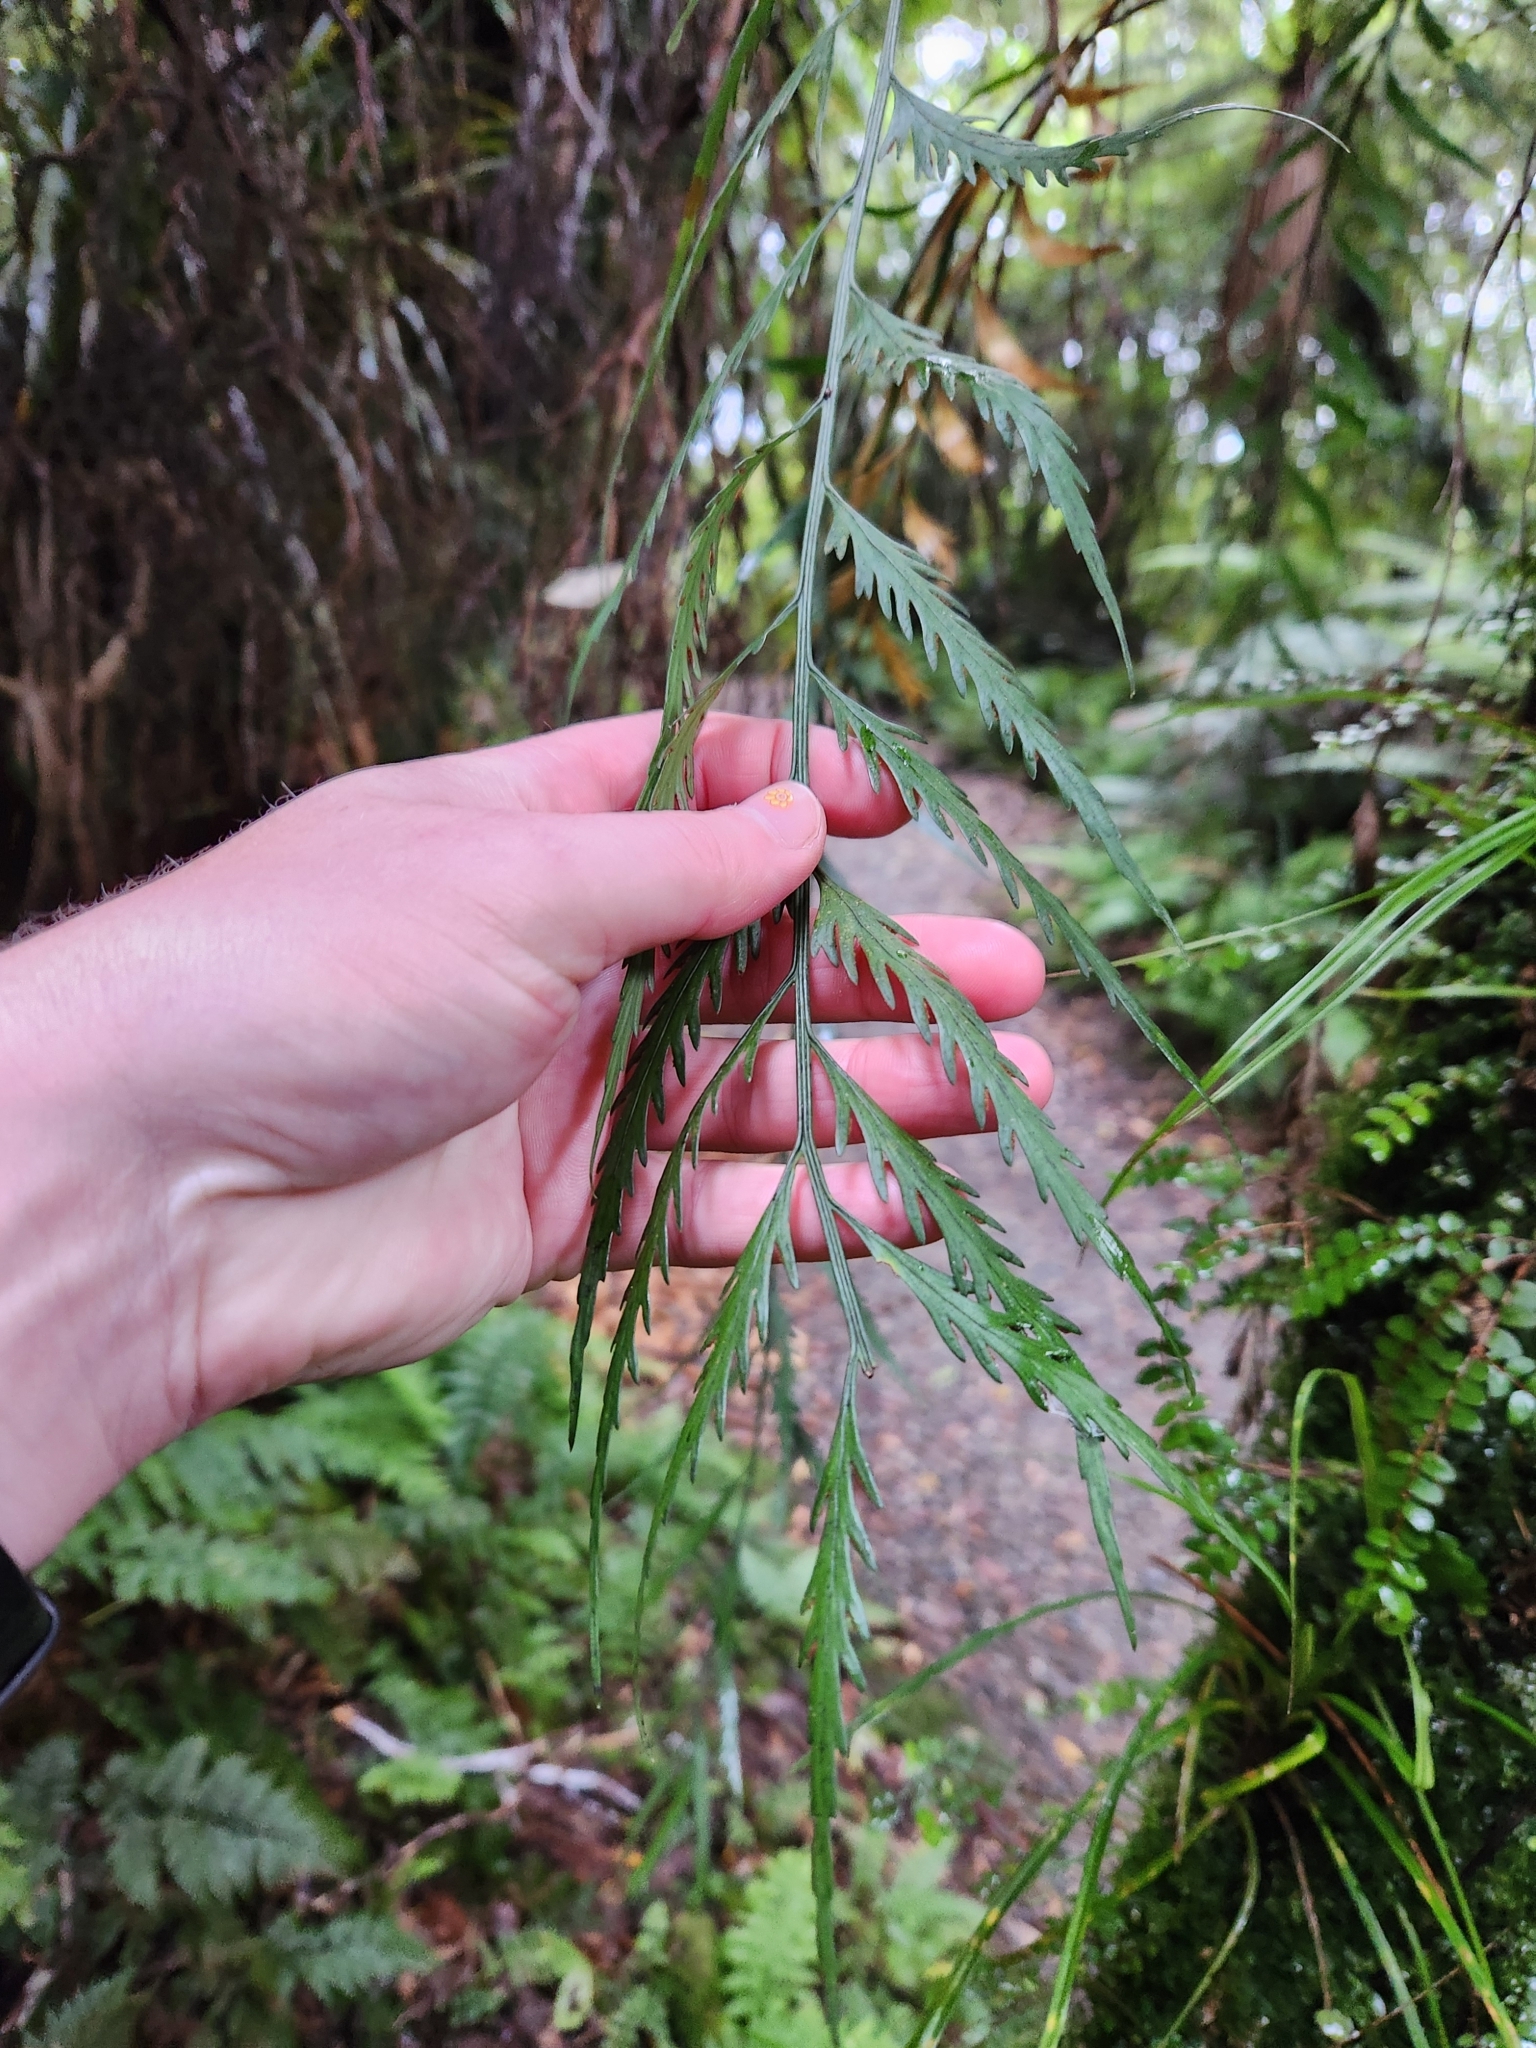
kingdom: Plantae
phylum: Tracheophyta
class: Polypodiopsida
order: Polypodiales
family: Aspleniaceae
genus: Asplenium
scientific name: Asplenium flaccidum
